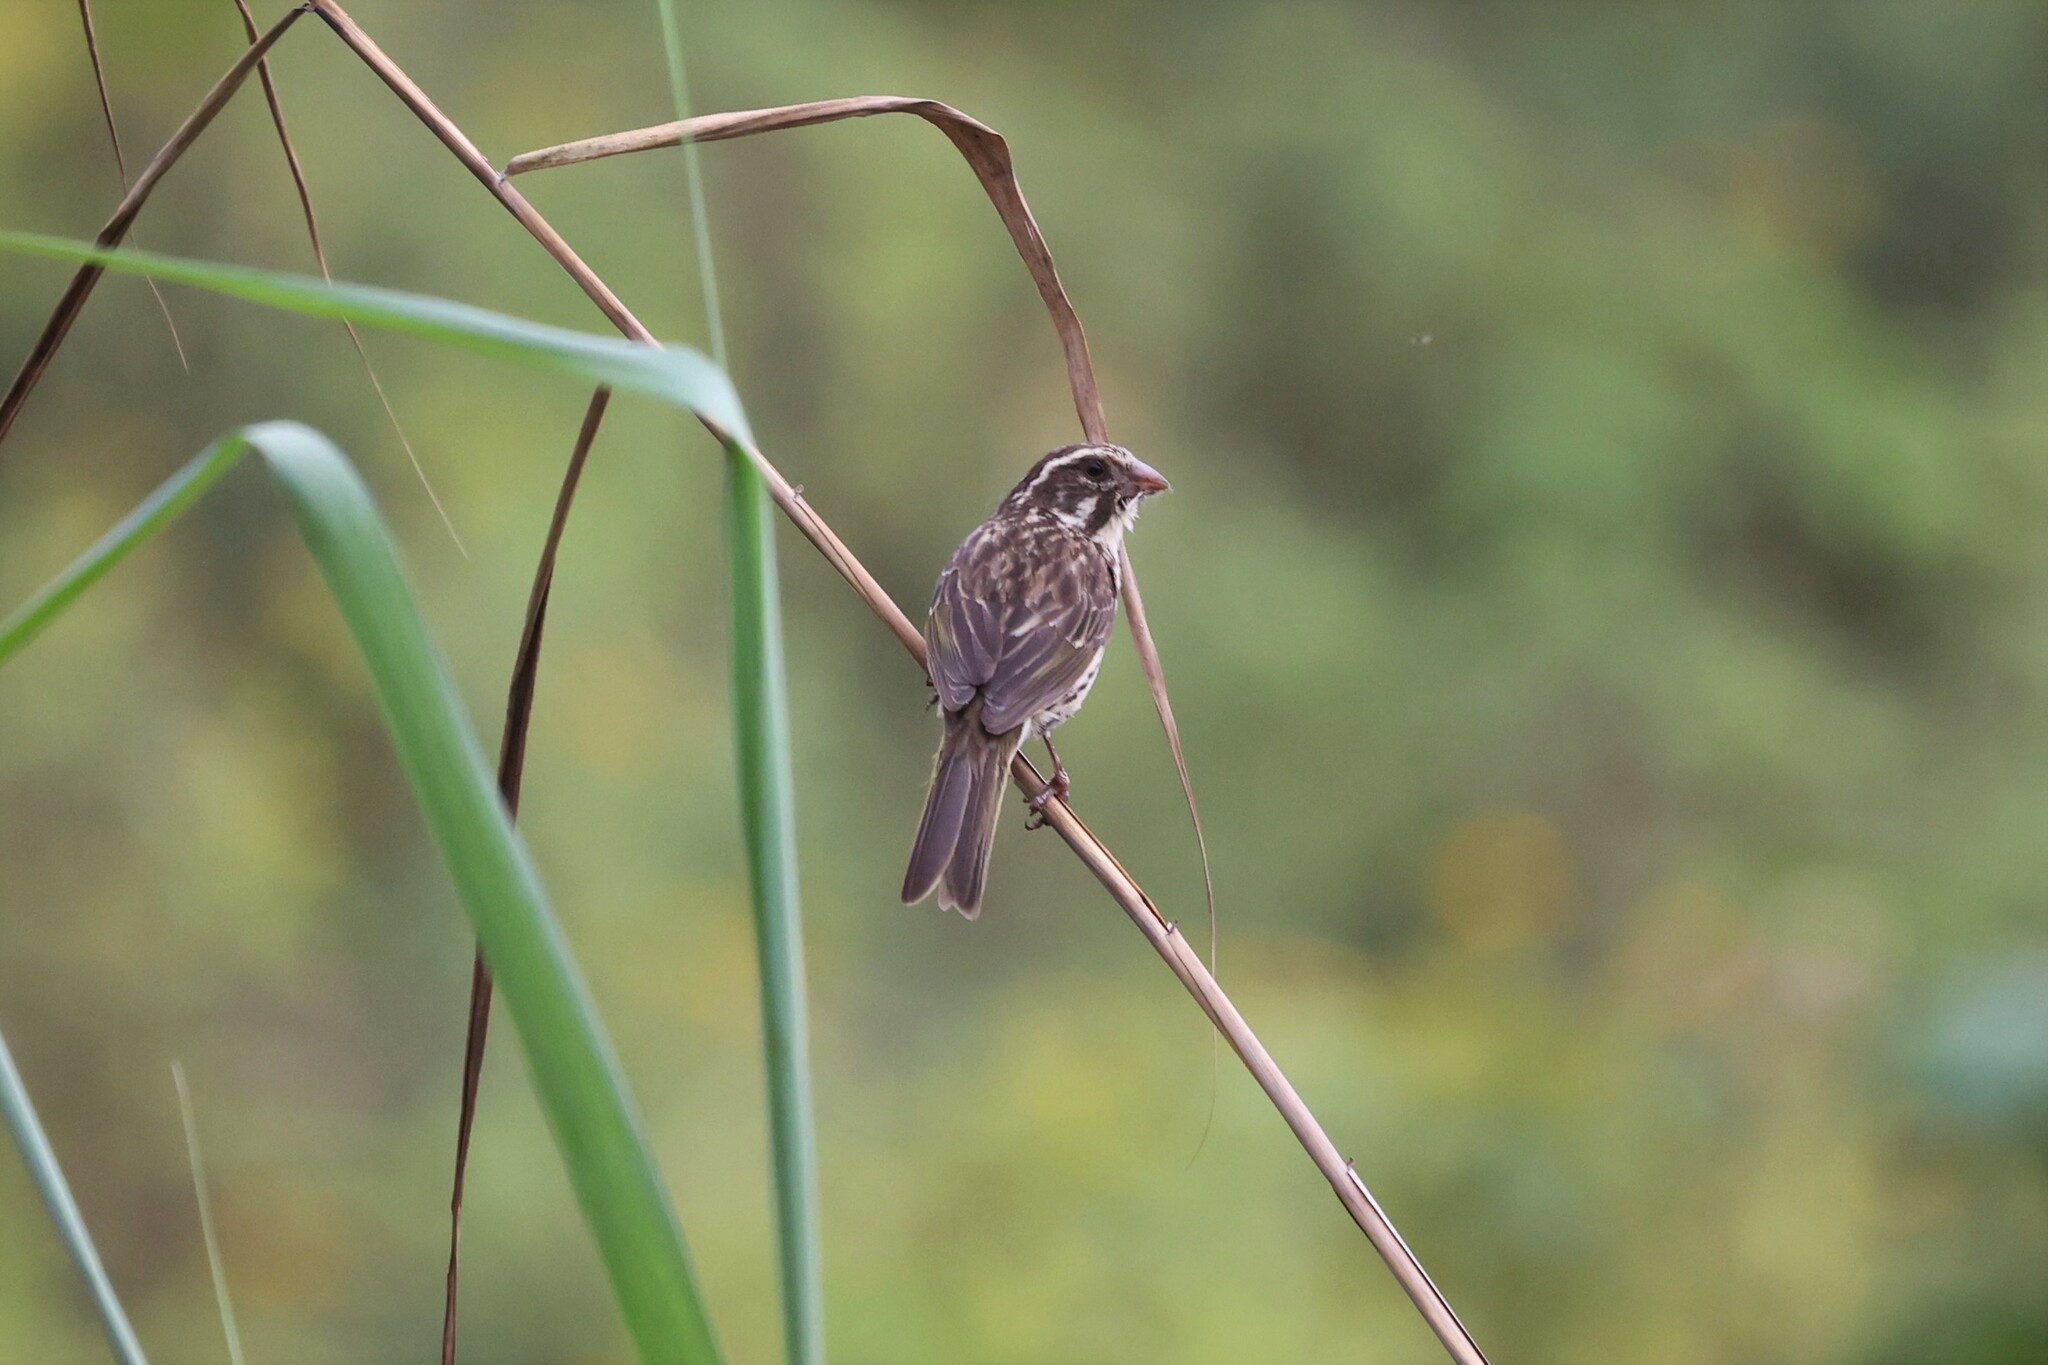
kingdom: Animalia
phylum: Chordata
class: Aves
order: Passeriformes
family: Fringillidae
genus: Crithagra
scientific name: Crithagra striolata
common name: Streaky seedeater
